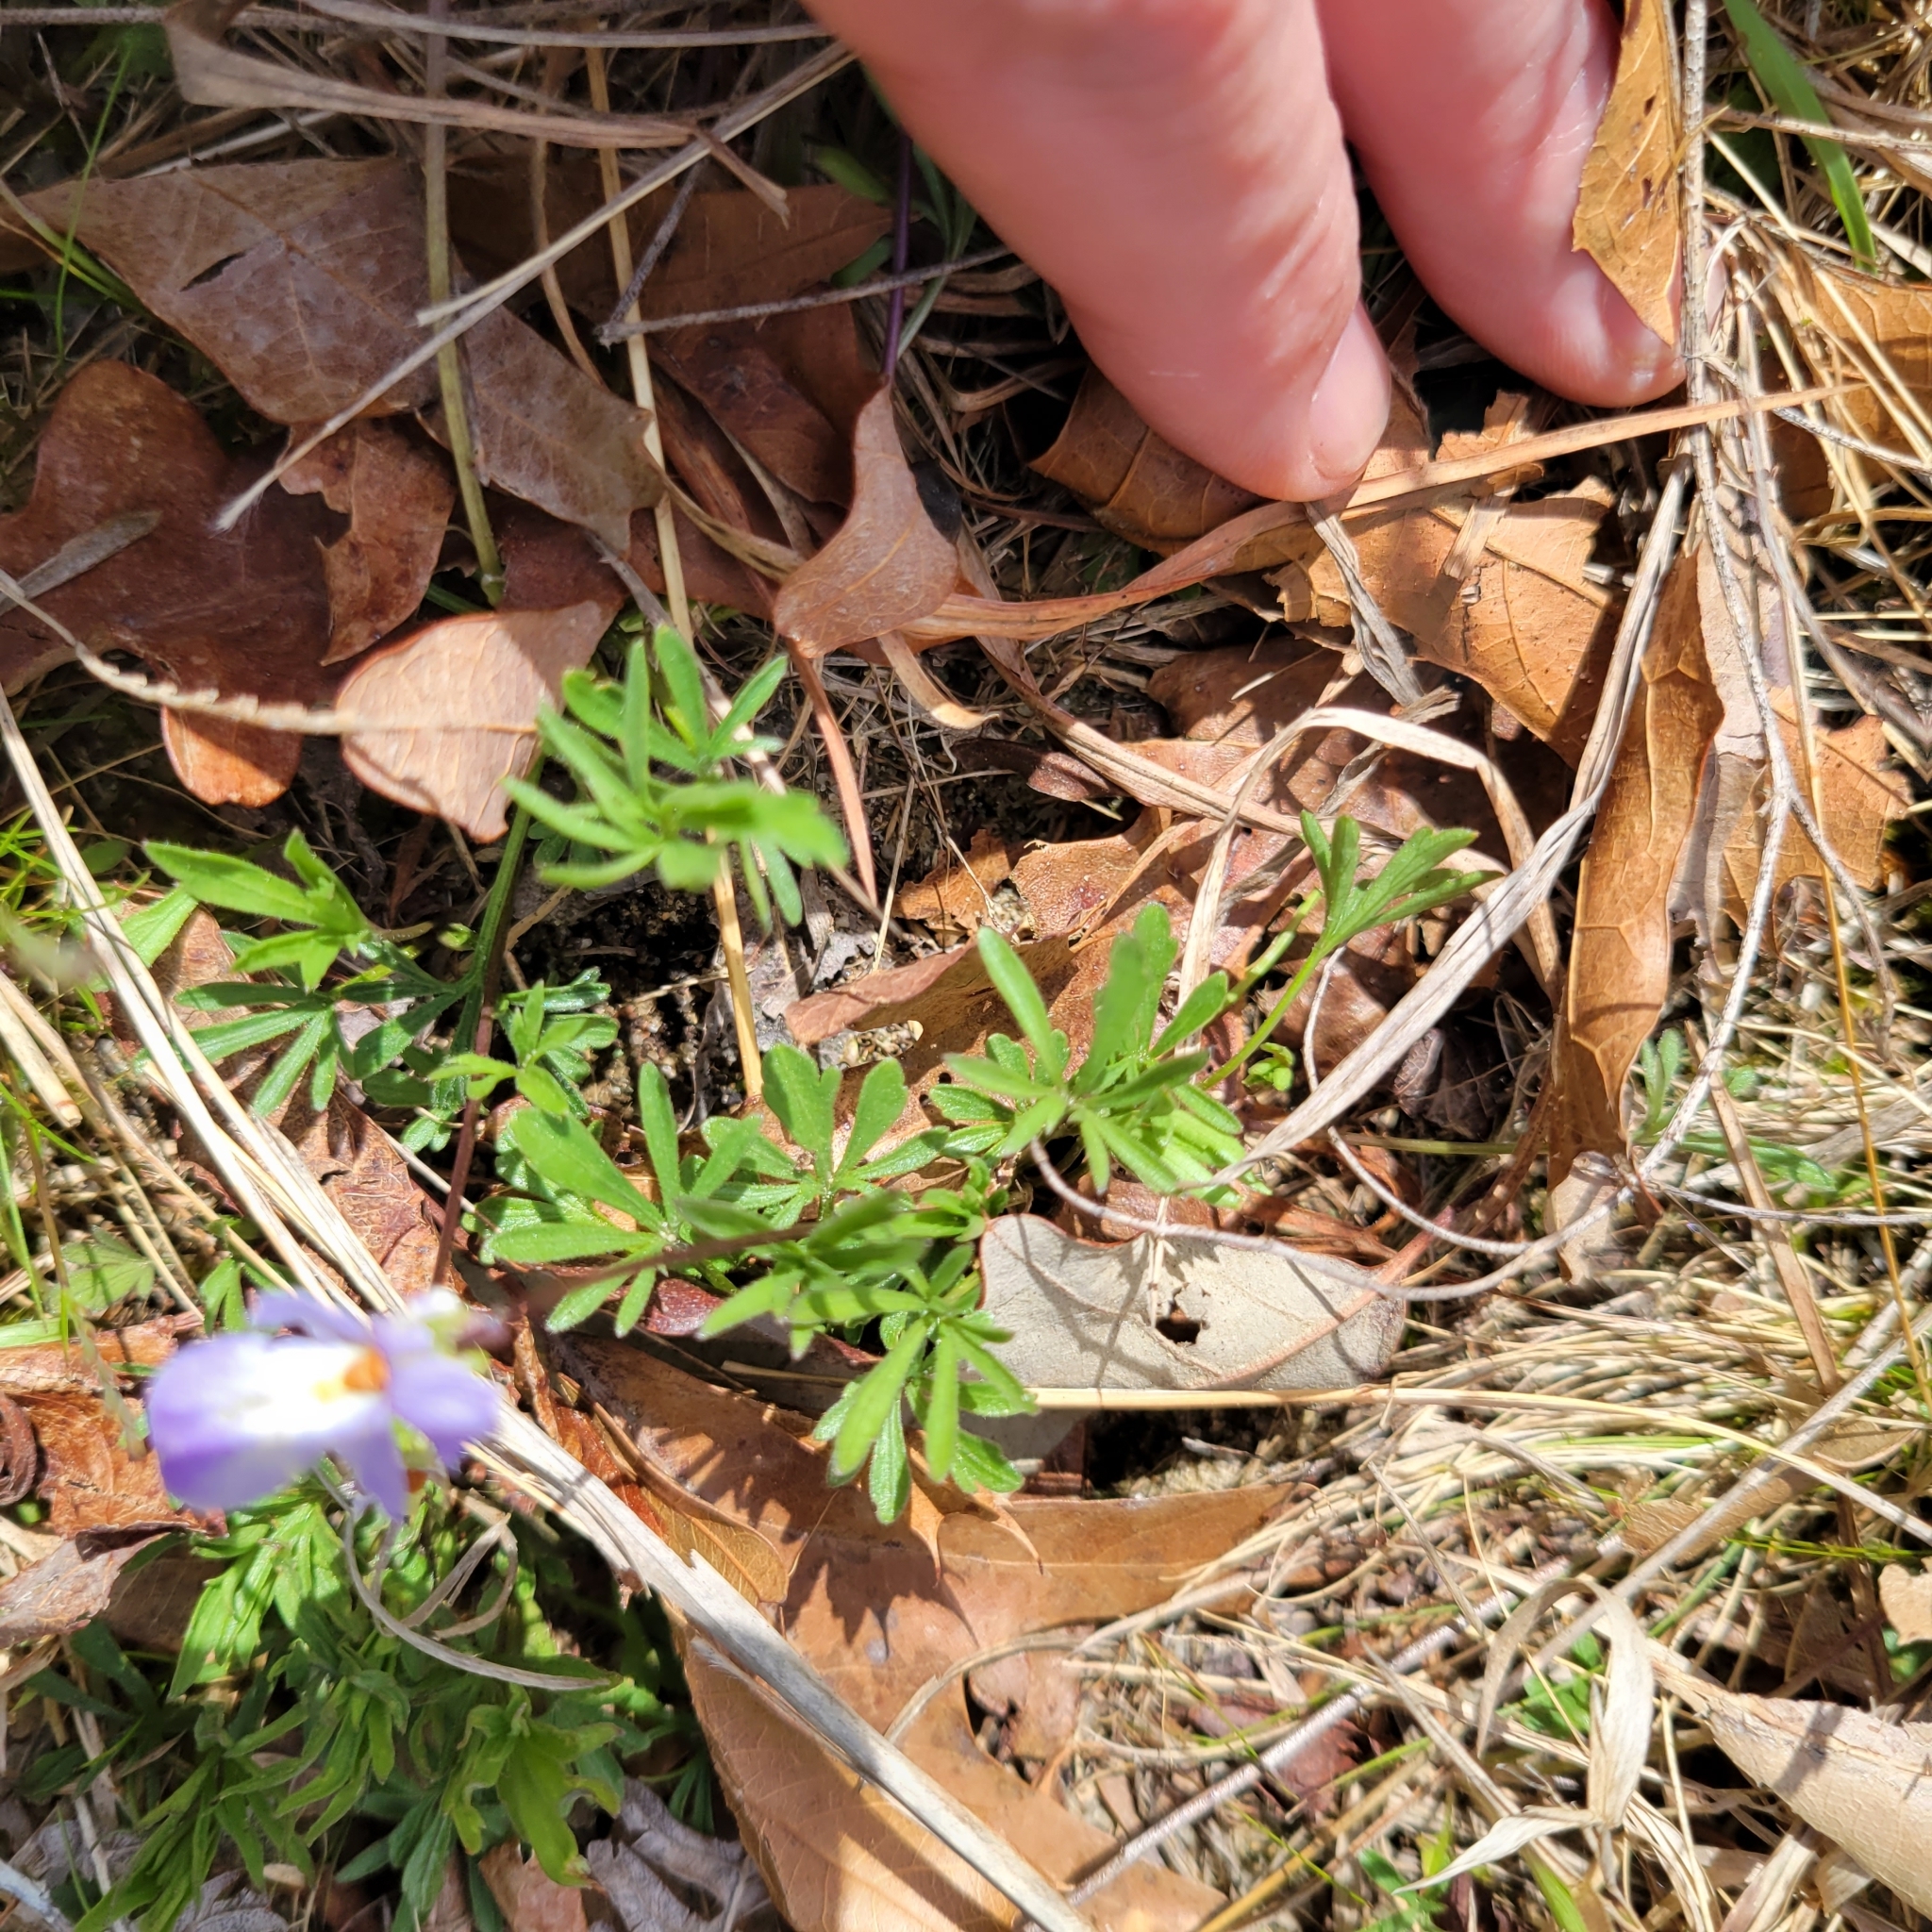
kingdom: Plantae
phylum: Tracheophyta
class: Magnoliopsida
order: Malpighiales
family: Violaceae
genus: Viola
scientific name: Viola pedata
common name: Pansy violet
